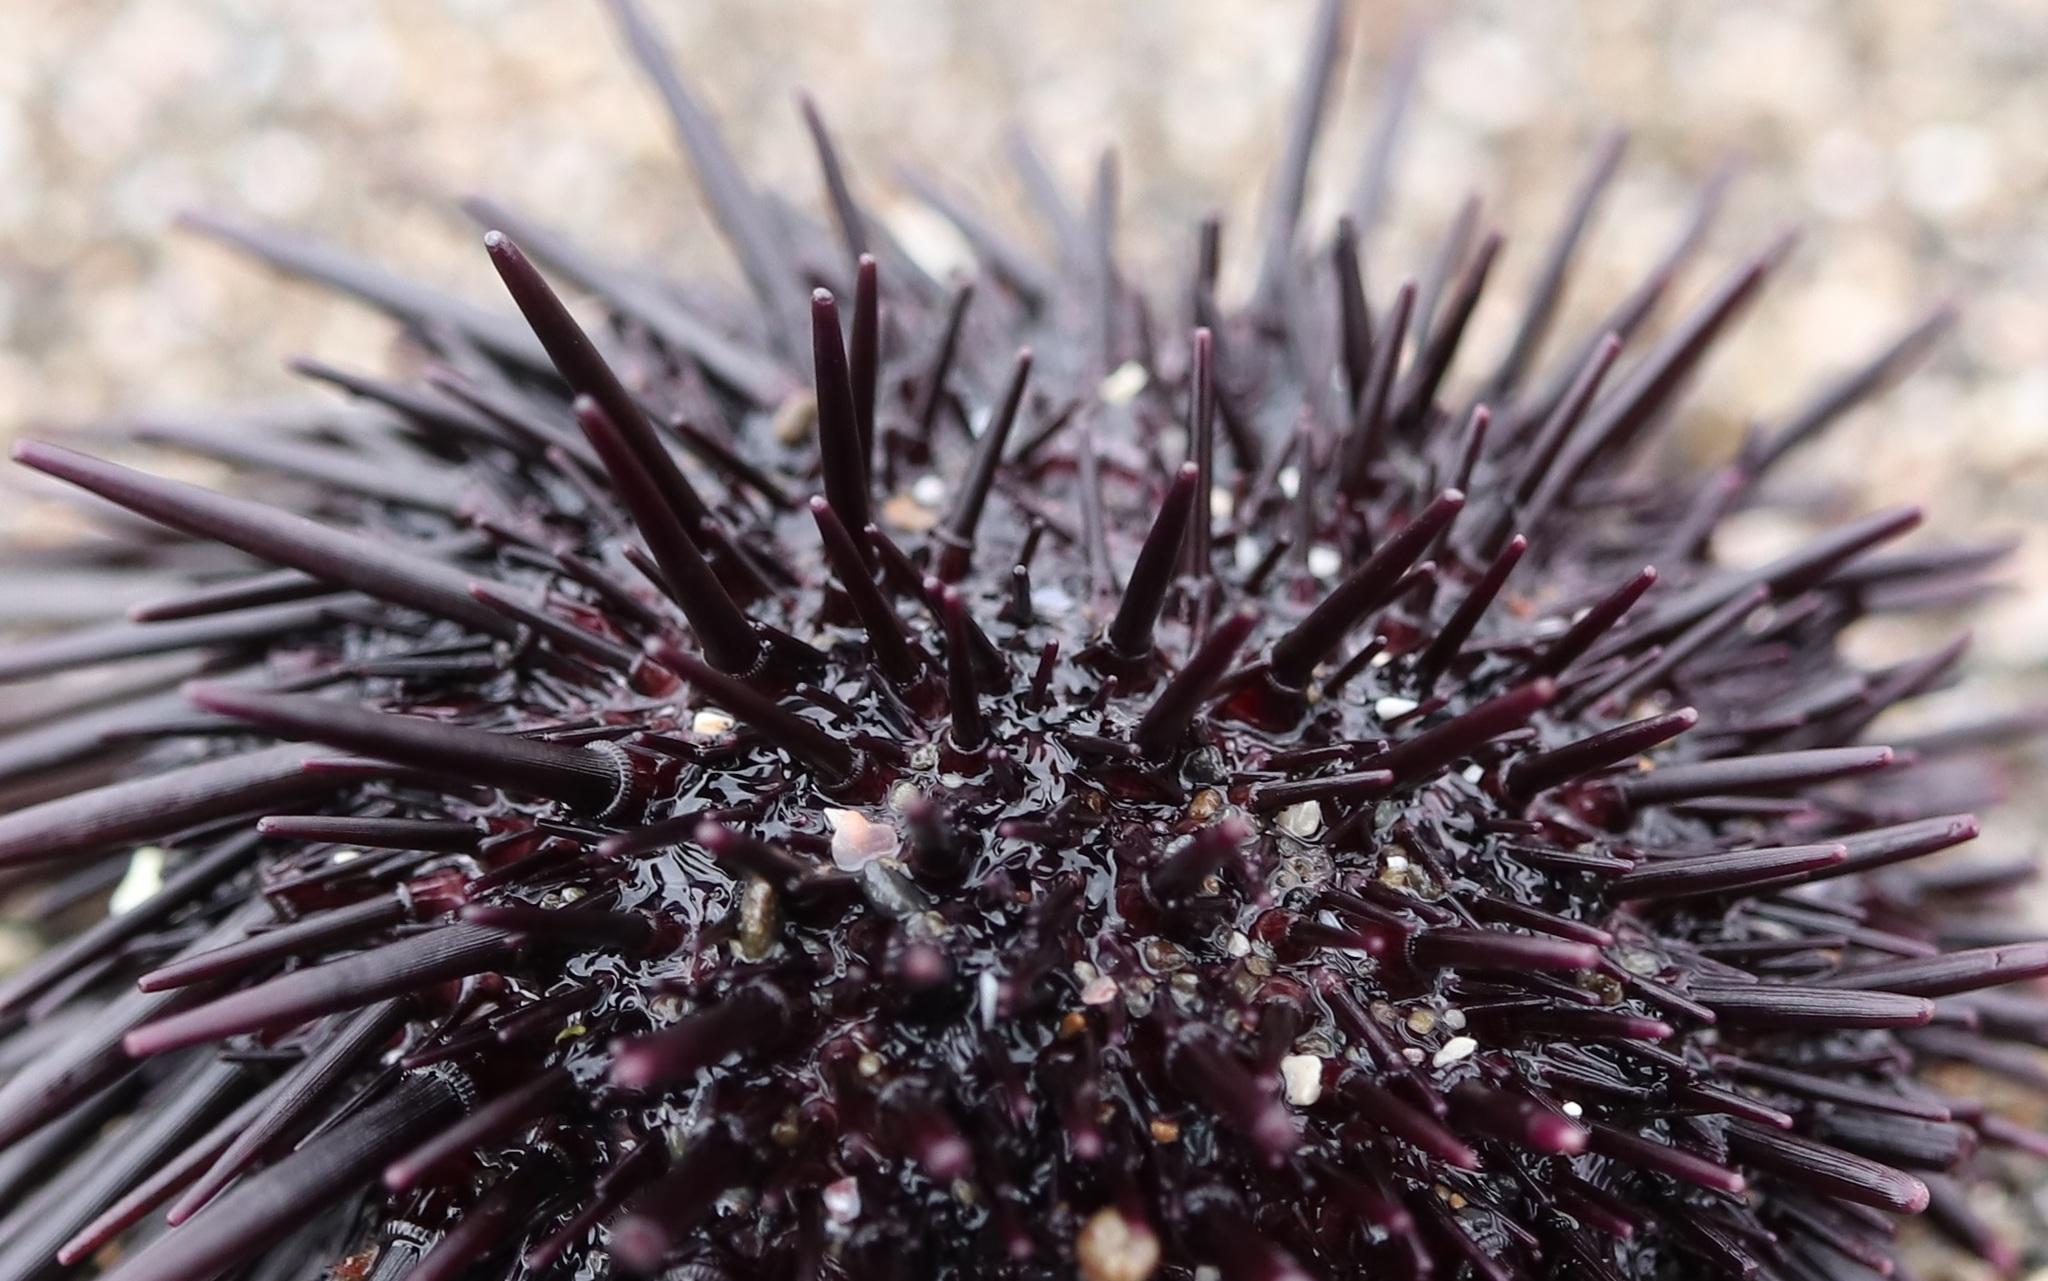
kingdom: Animalia
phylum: Echinodermata
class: Echinoidea
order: Camarodonta
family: Echinometridae
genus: Heliocidaris
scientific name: Heliocidaris crassispina
